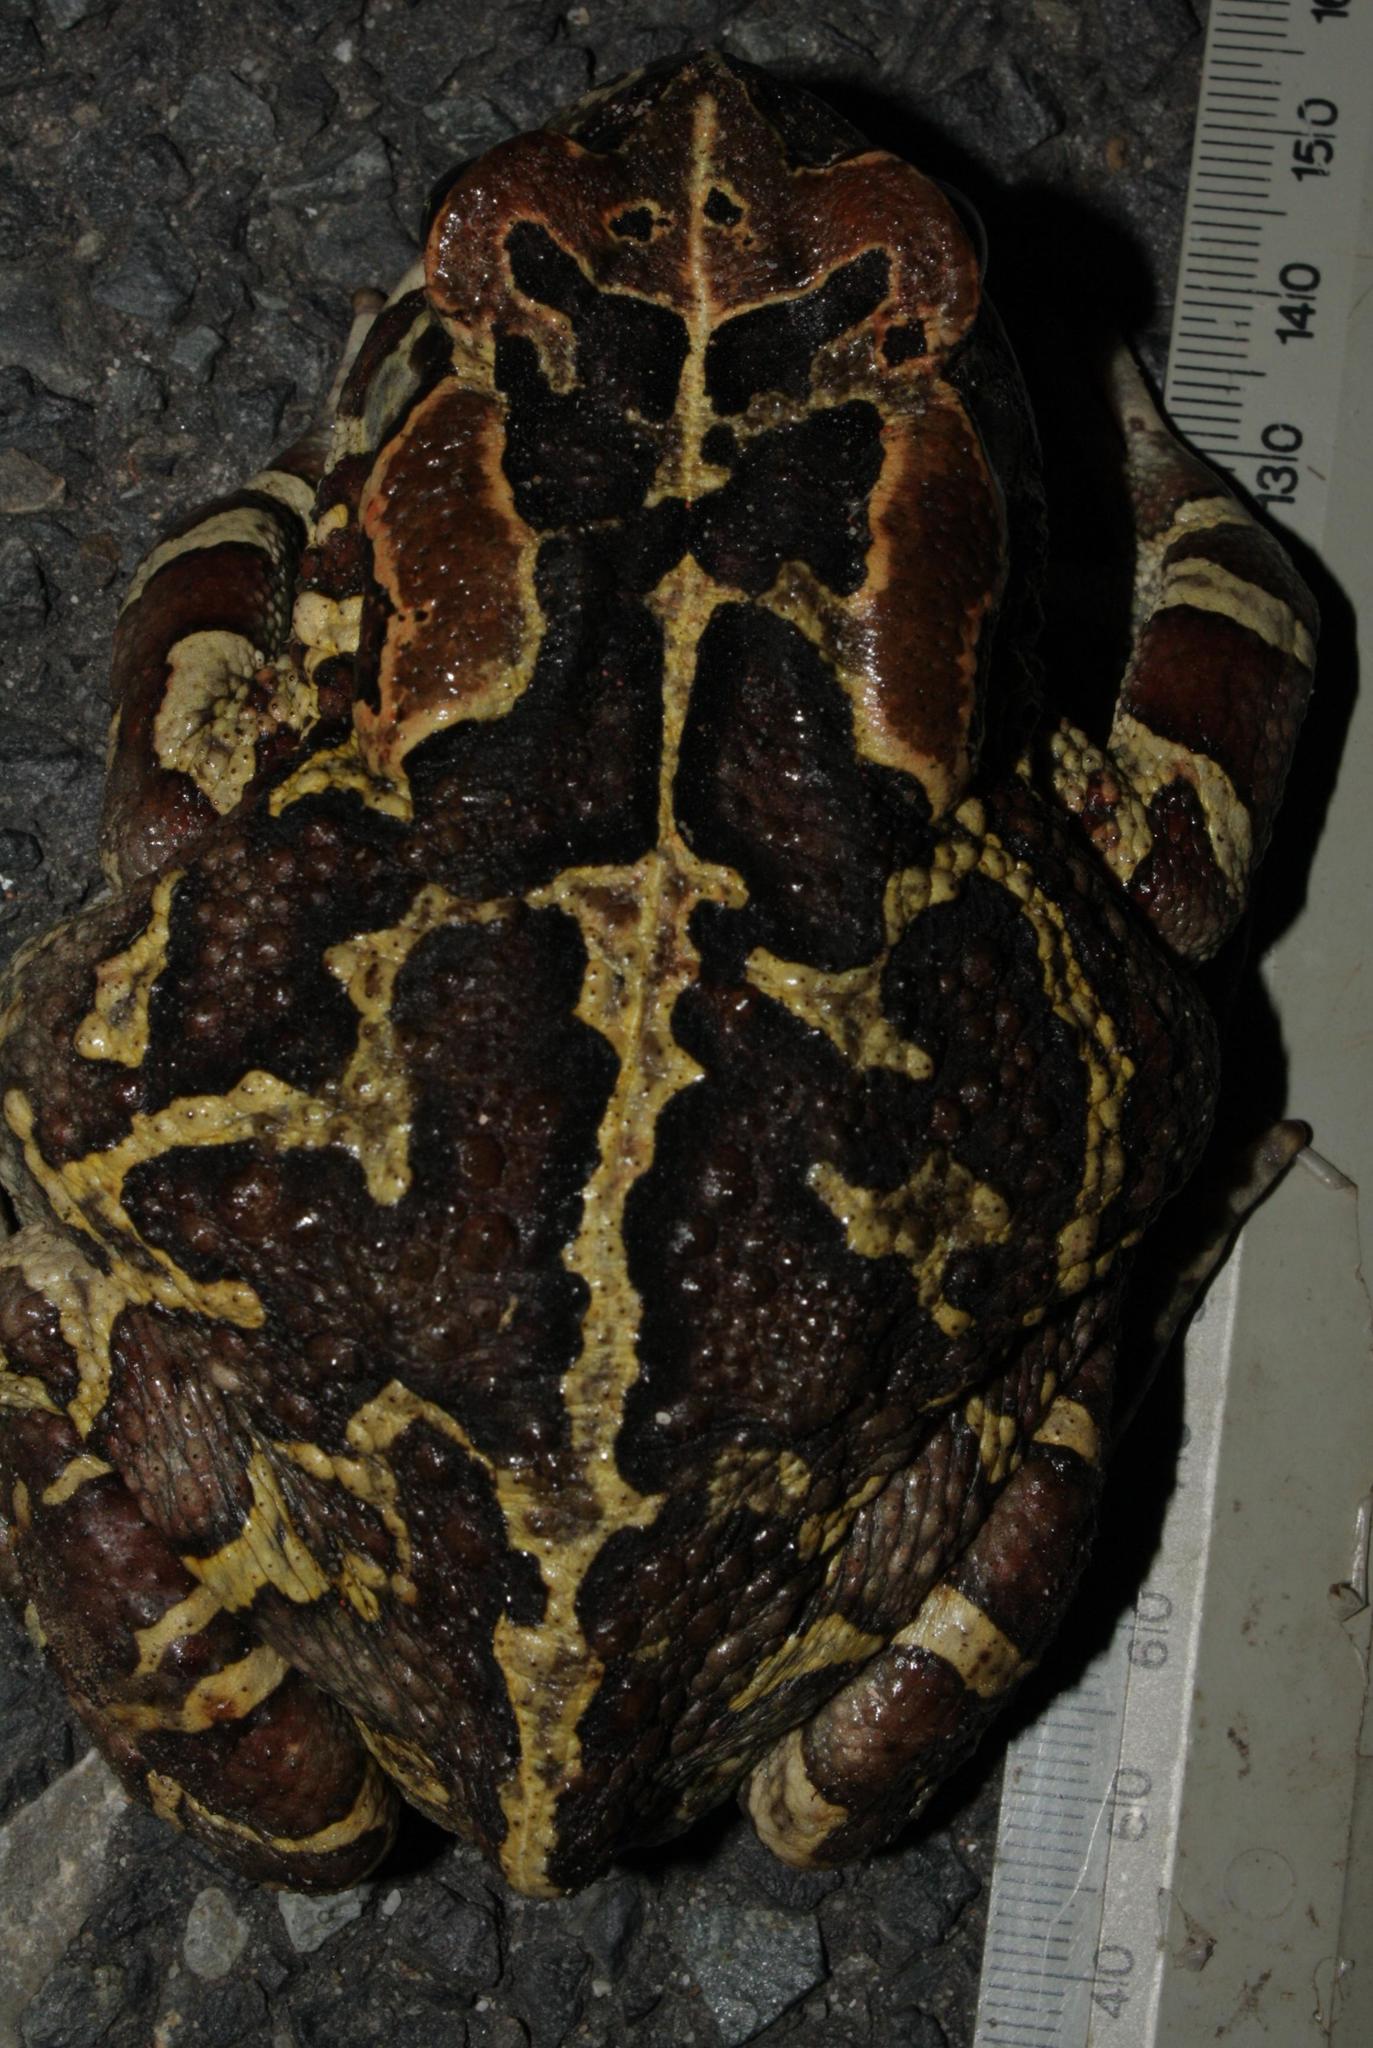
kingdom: Animalia
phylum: Chordata
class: Amphibia
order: Anura
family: Bufonidae
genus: Sclerophrys
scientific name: Sclerophrys pantherina
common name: Panther toad
